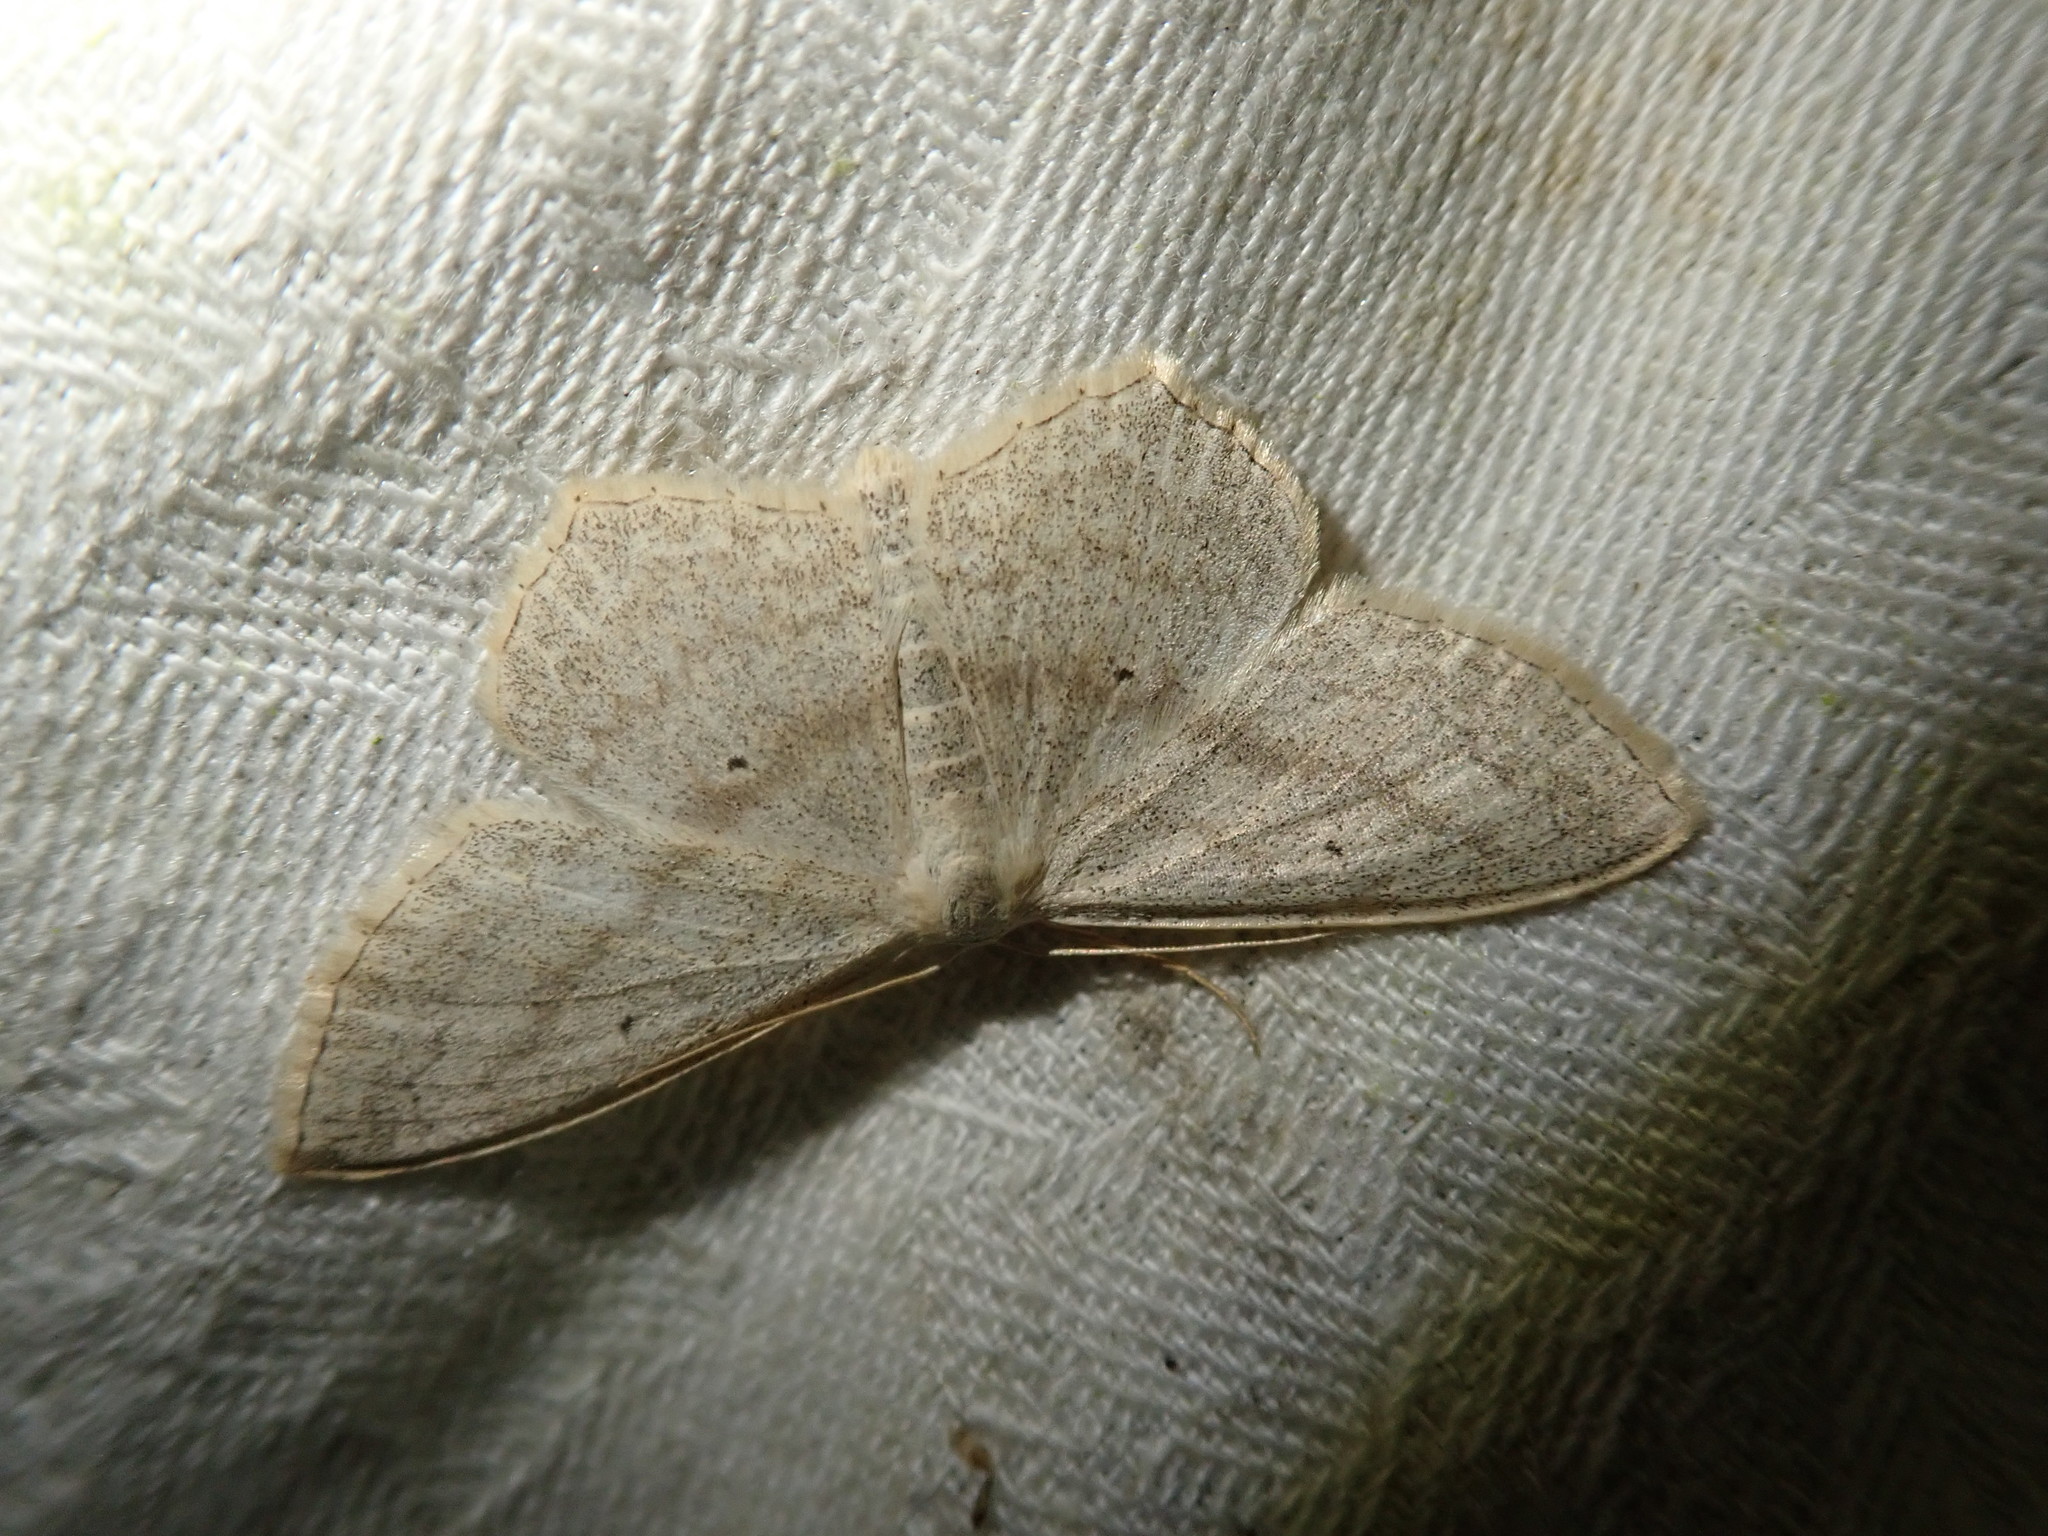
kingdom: Animalia
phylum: Arthropoda
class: Insecta
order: Lepidoptera
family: Geometridae
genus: Scopula
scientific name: Scopula nigropunctata
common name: Sub-angled wave
